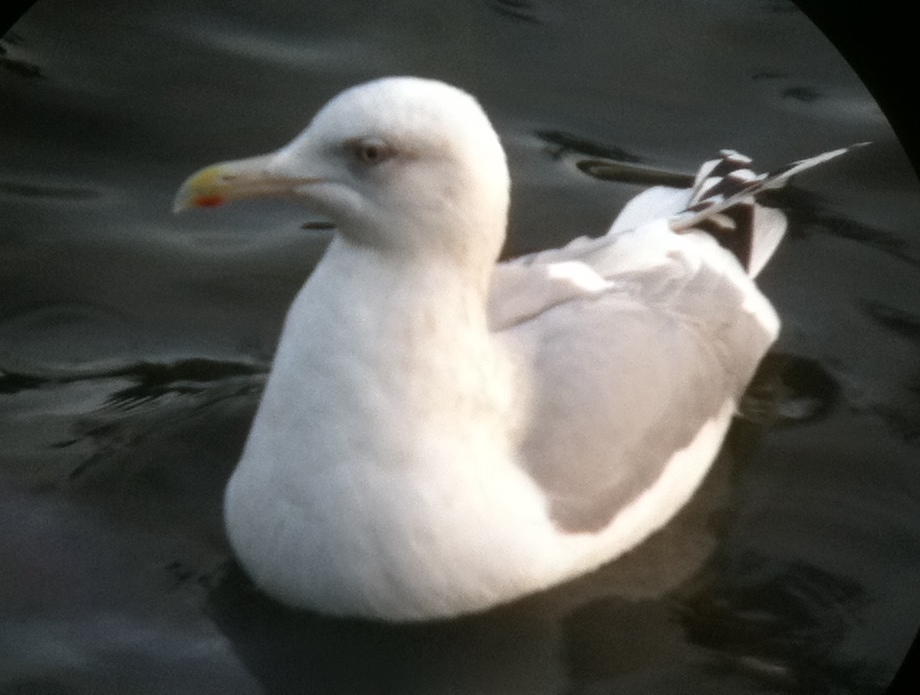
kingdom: Animalia
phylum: Chordata
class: Aves
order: Charadriiformes
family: Laridae
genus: Larus
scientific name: Larus glaucoides
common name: Iceland gull
